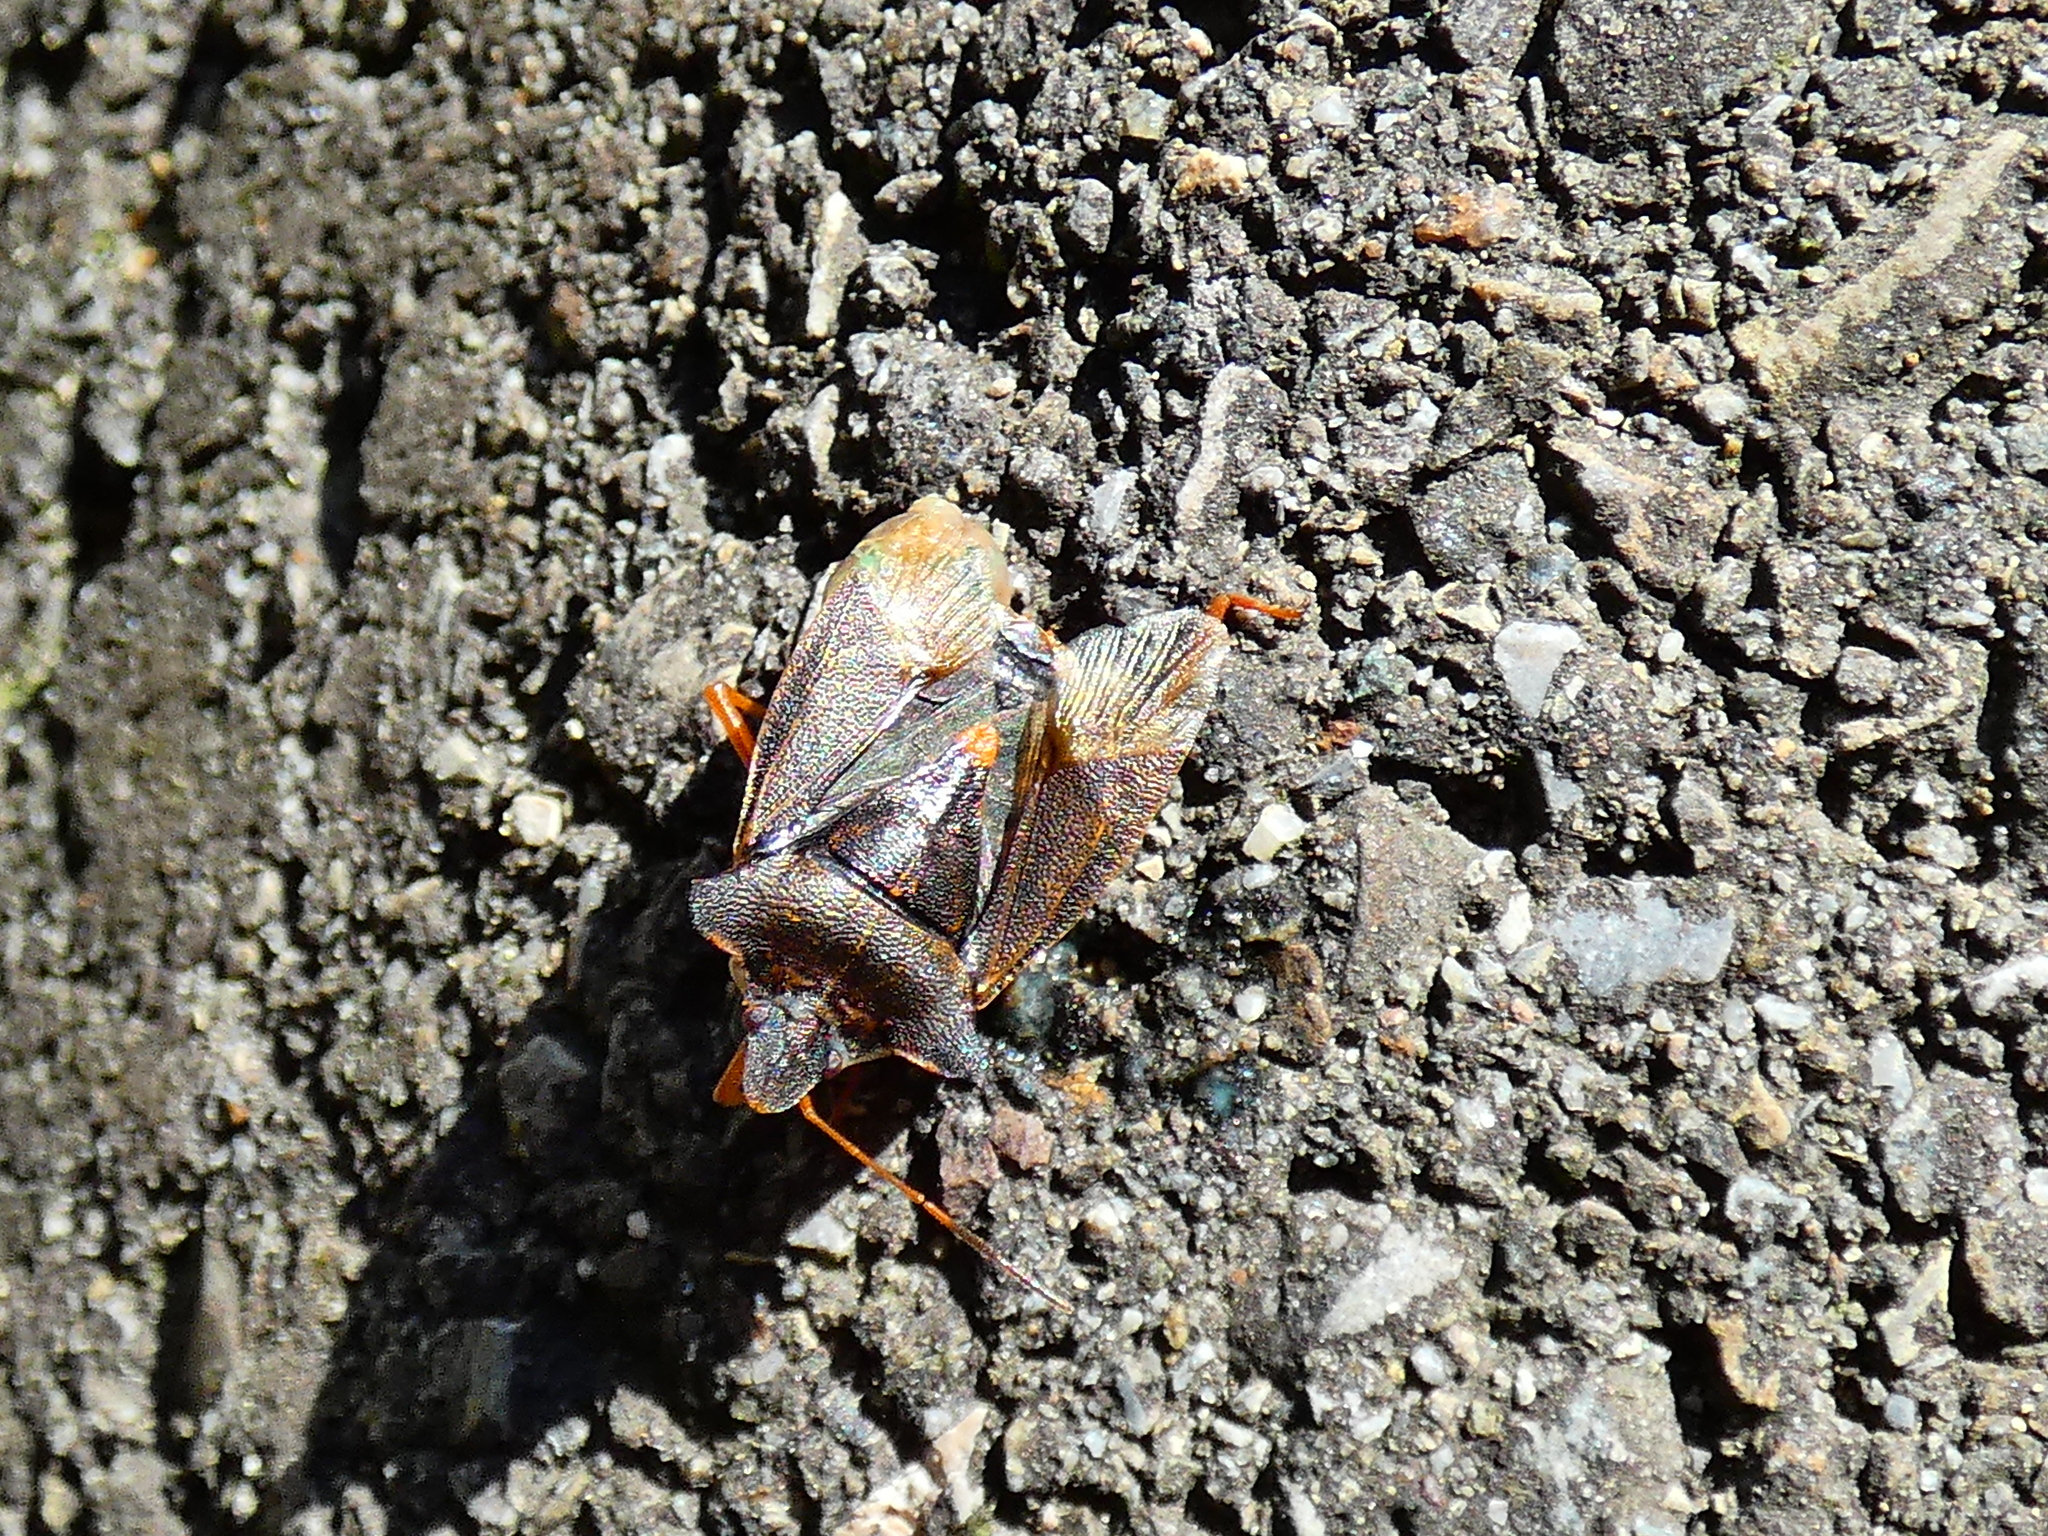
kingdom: Animalia
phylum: Arthropoda
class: Insecta
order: Hemiptera
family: Pentatomidae
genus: Pentatoma
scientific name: Pentatoma rufipes
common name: Forest bug
